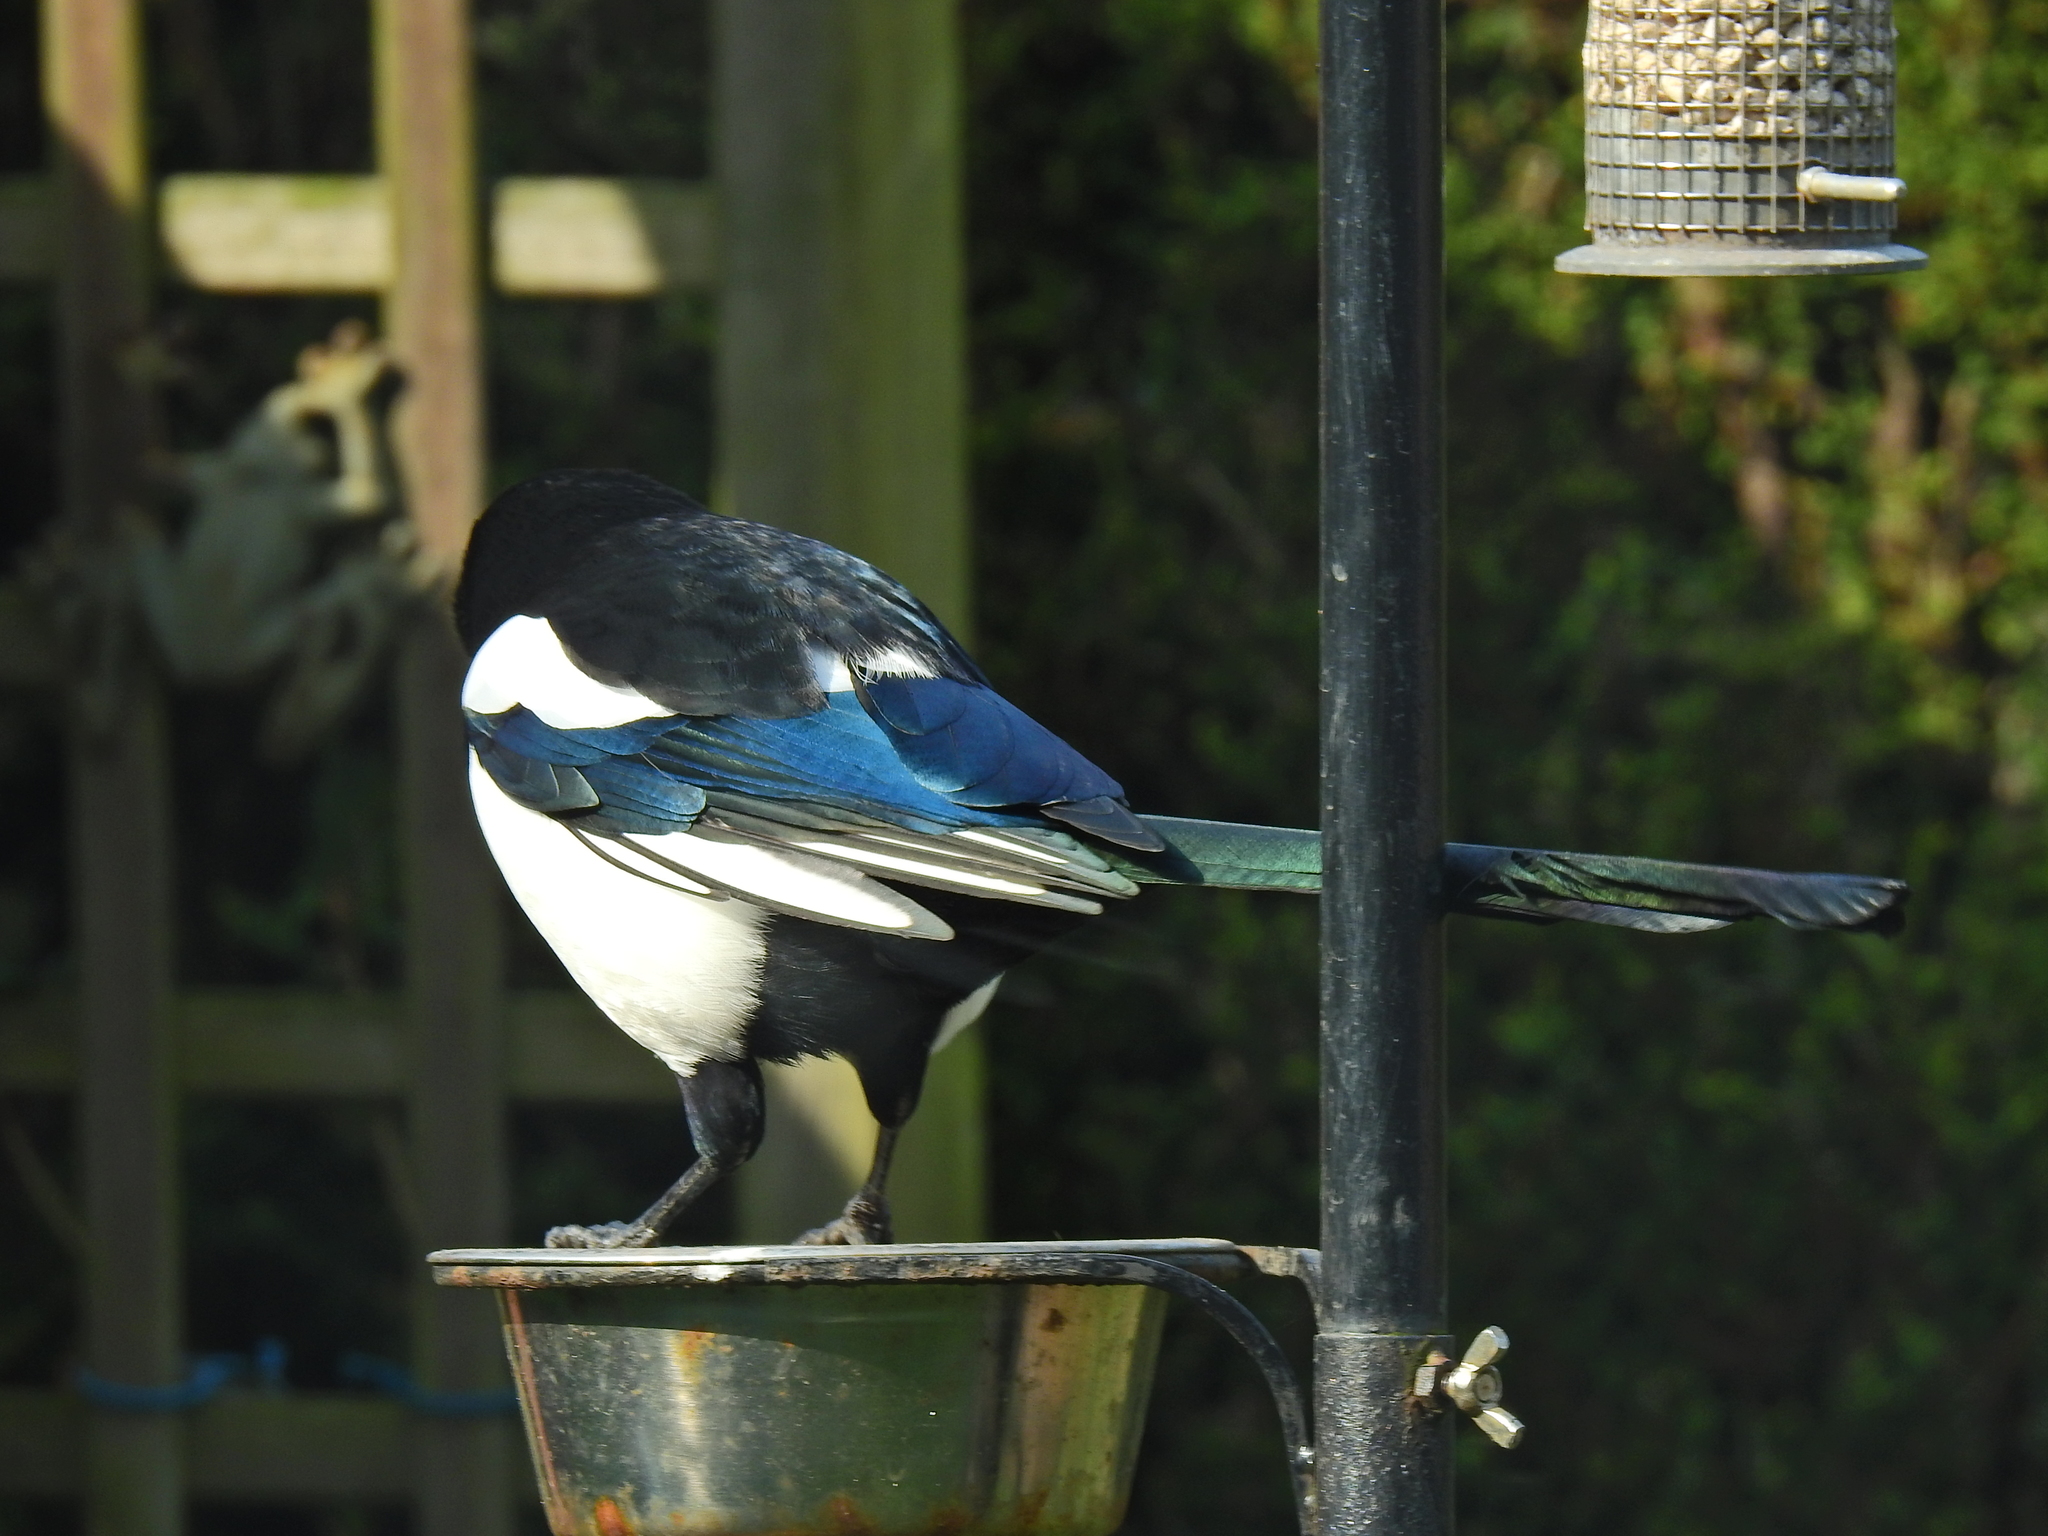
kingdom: Animalia
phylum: Chordata
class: Aves
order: Passeriformes
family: Corvidae
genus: Pica
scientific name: Pica pica
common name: Eurasian magpie
